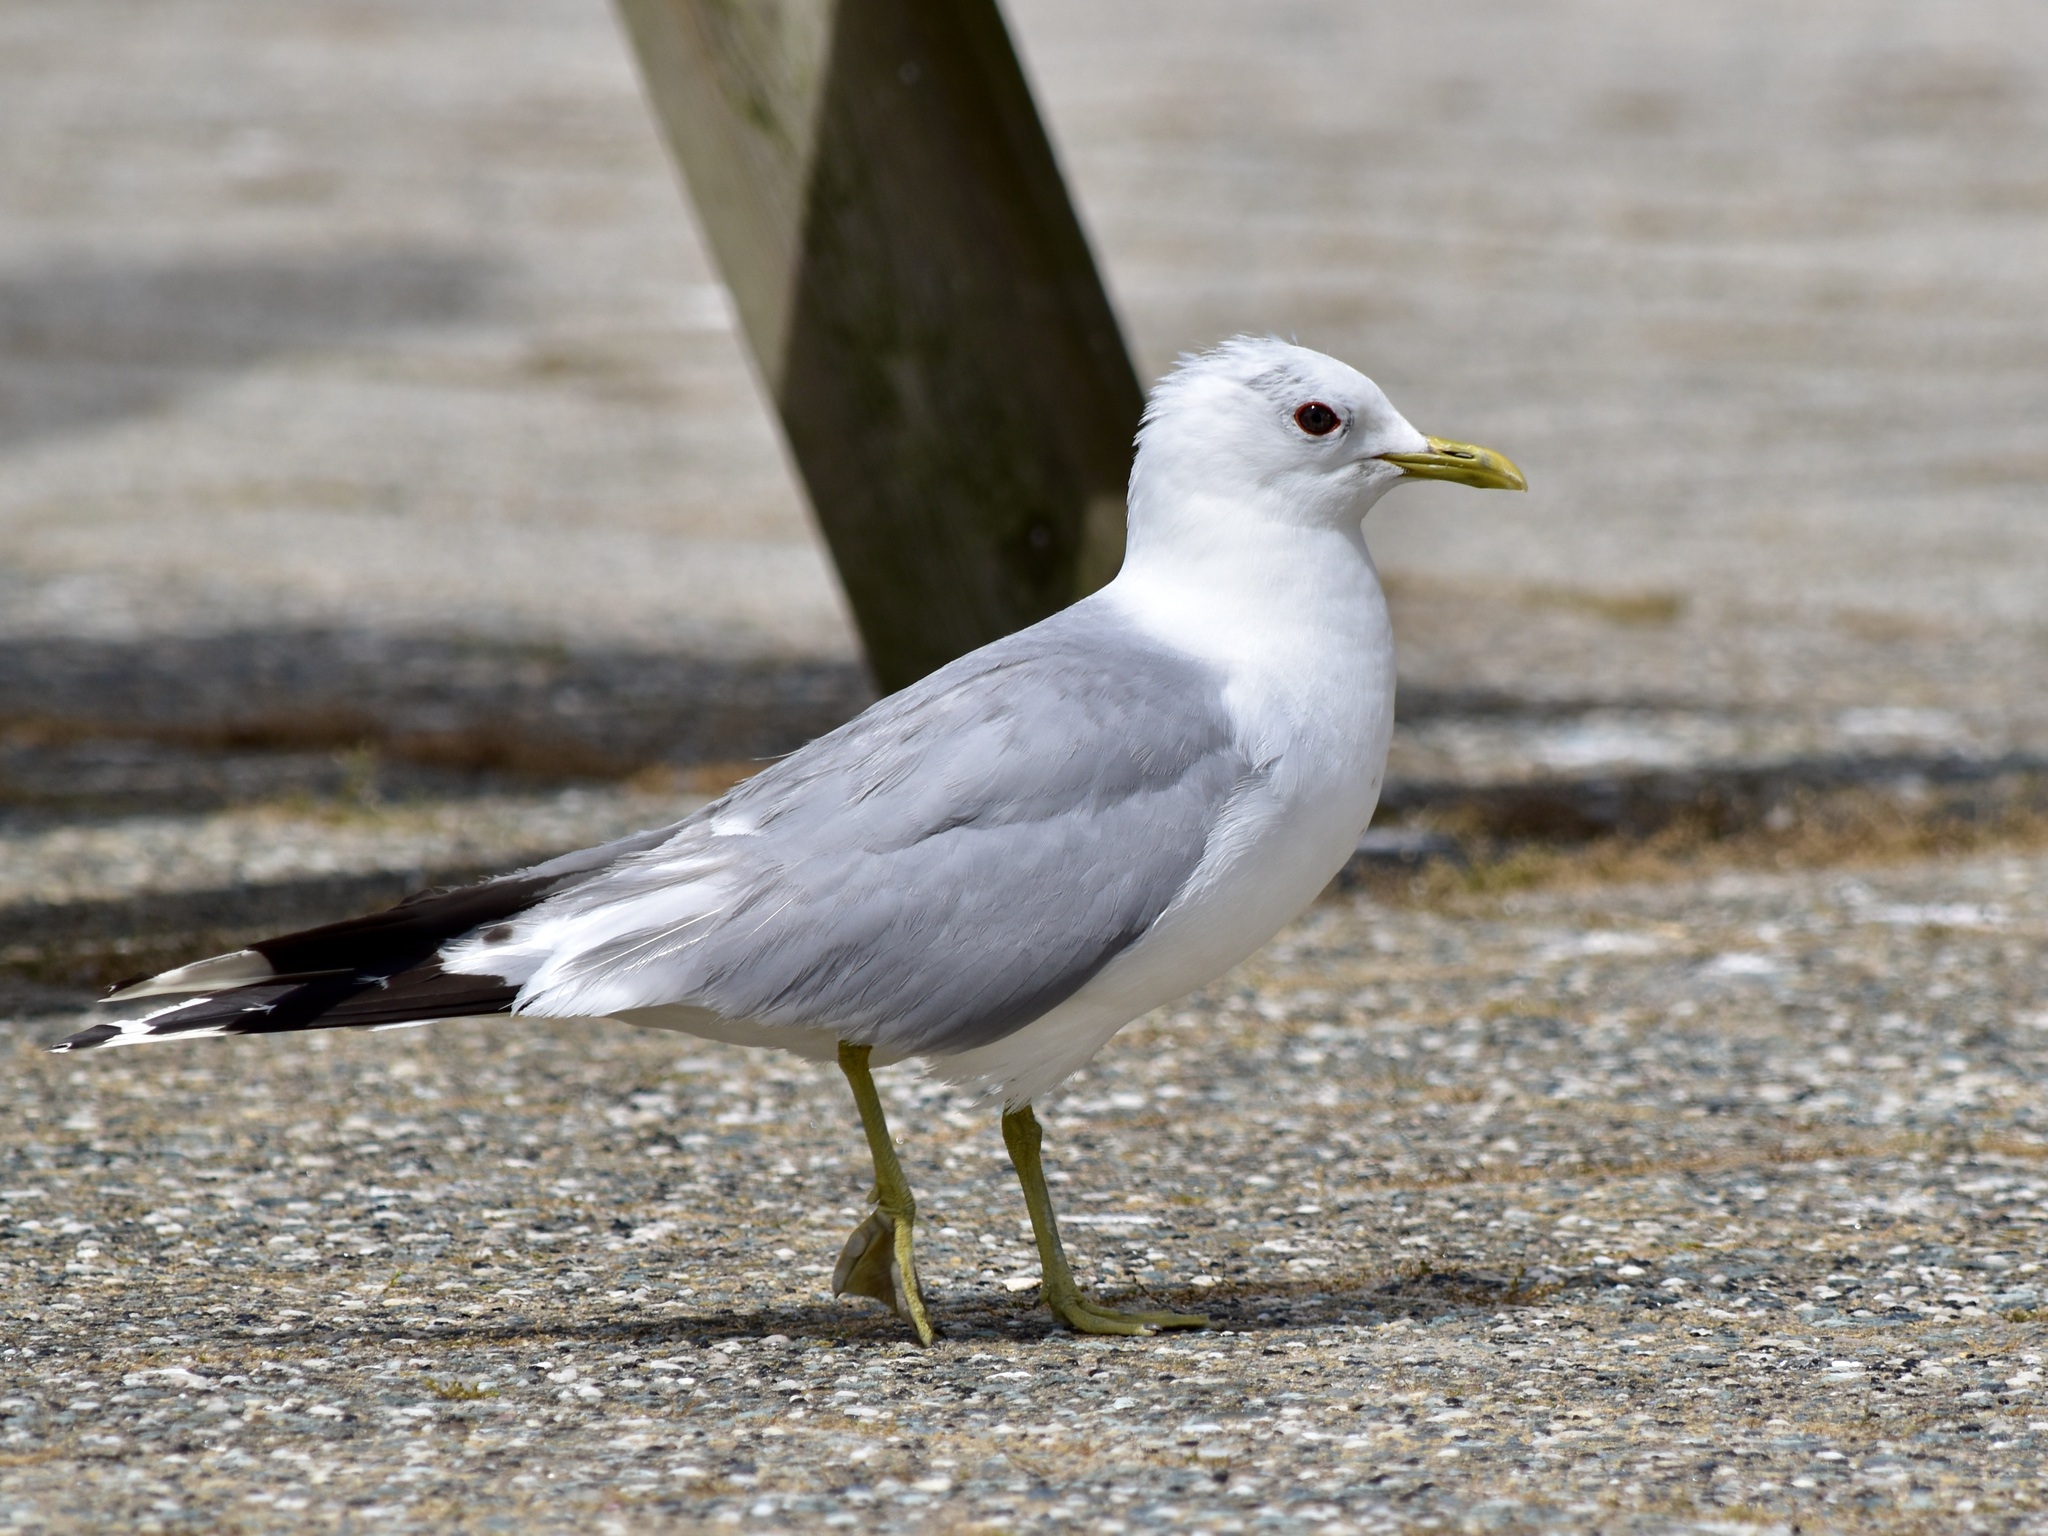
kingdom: Animalia
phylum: Chordata
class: Aves
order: Charadriiformes
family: Laridae
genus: Larus
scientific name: Larus canus
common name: Mew gull
